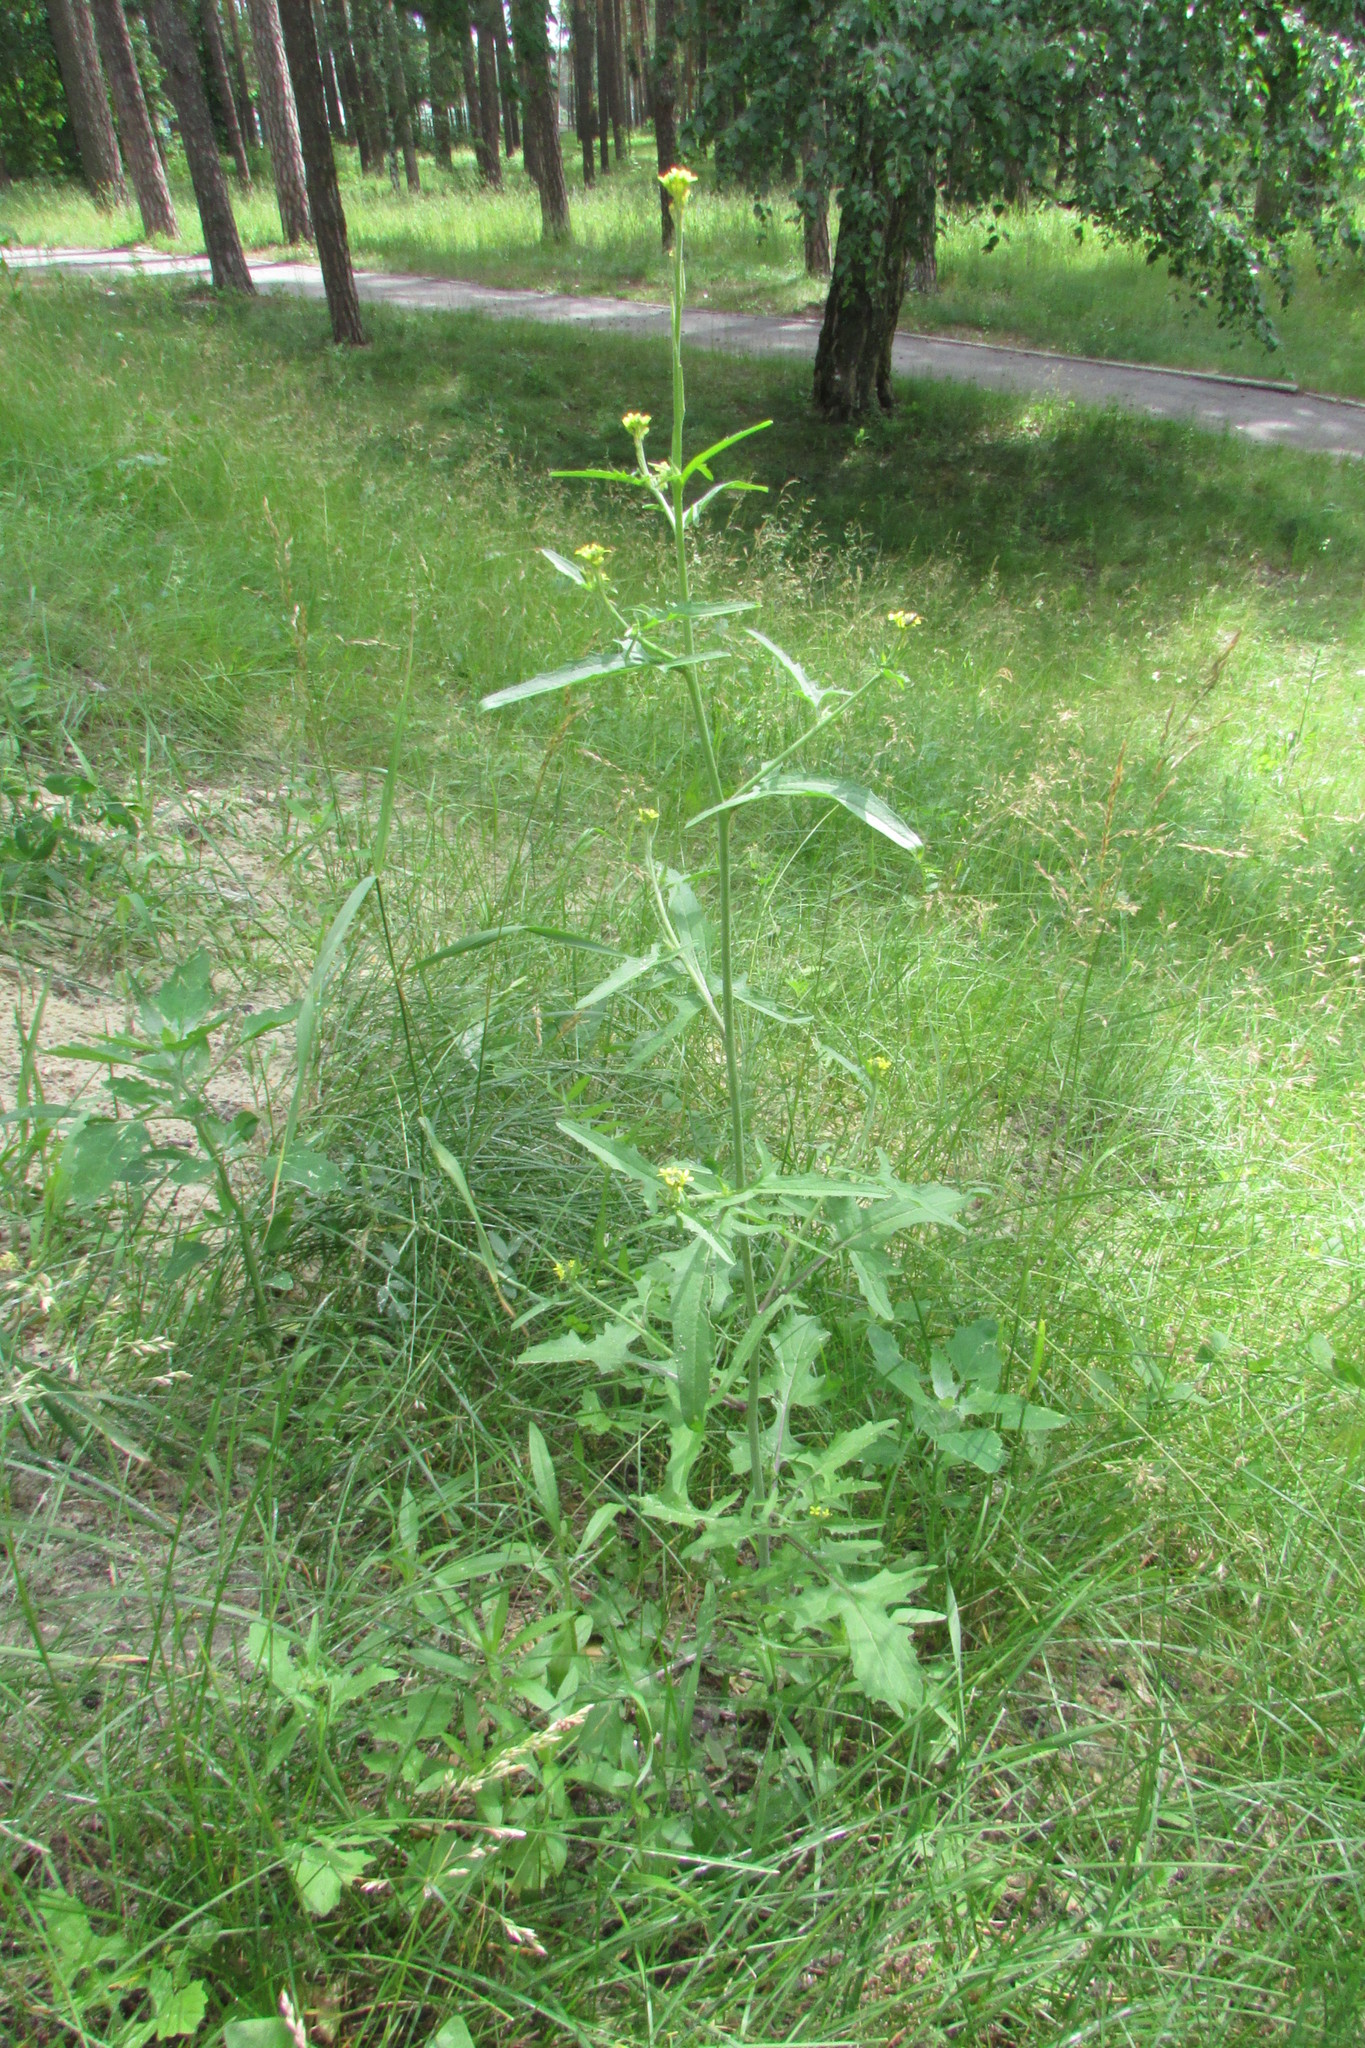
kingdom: Plantae
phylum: Tracheophyta
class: Magnoliopsida
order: Brassicales
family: Brassicaceae
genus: Sisymbrium
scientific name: Sisymbrium officinale
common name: Hedge mustard
